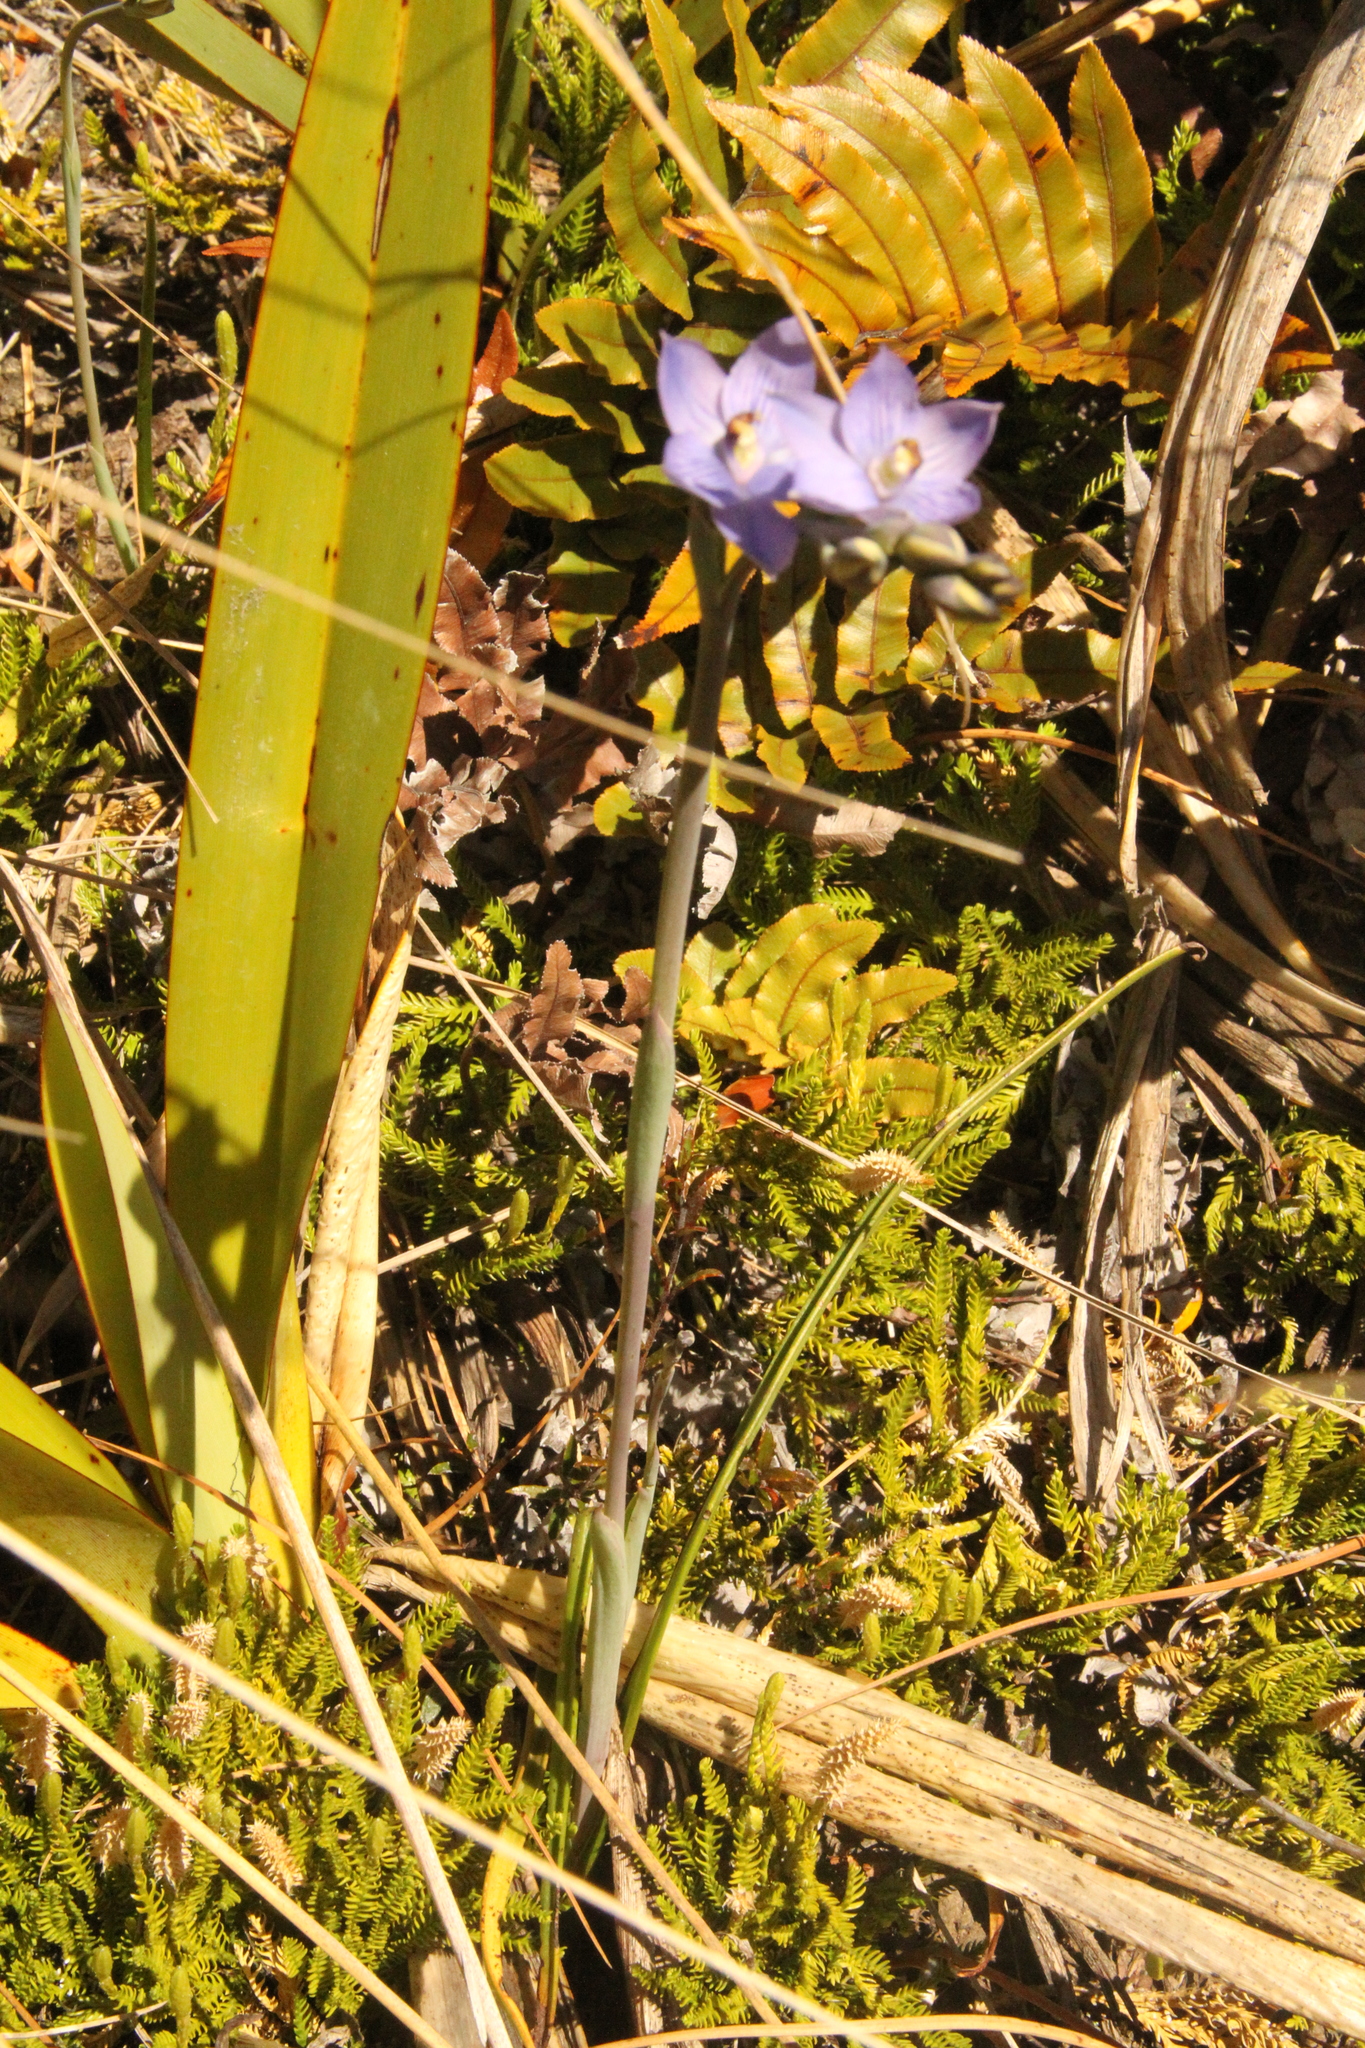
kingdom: Plantae
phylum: Tracheophyta
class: Liliopsida
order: Asparagales
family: Orchidaceae
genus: Thelymitra
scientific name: Thelymitra pulchella
